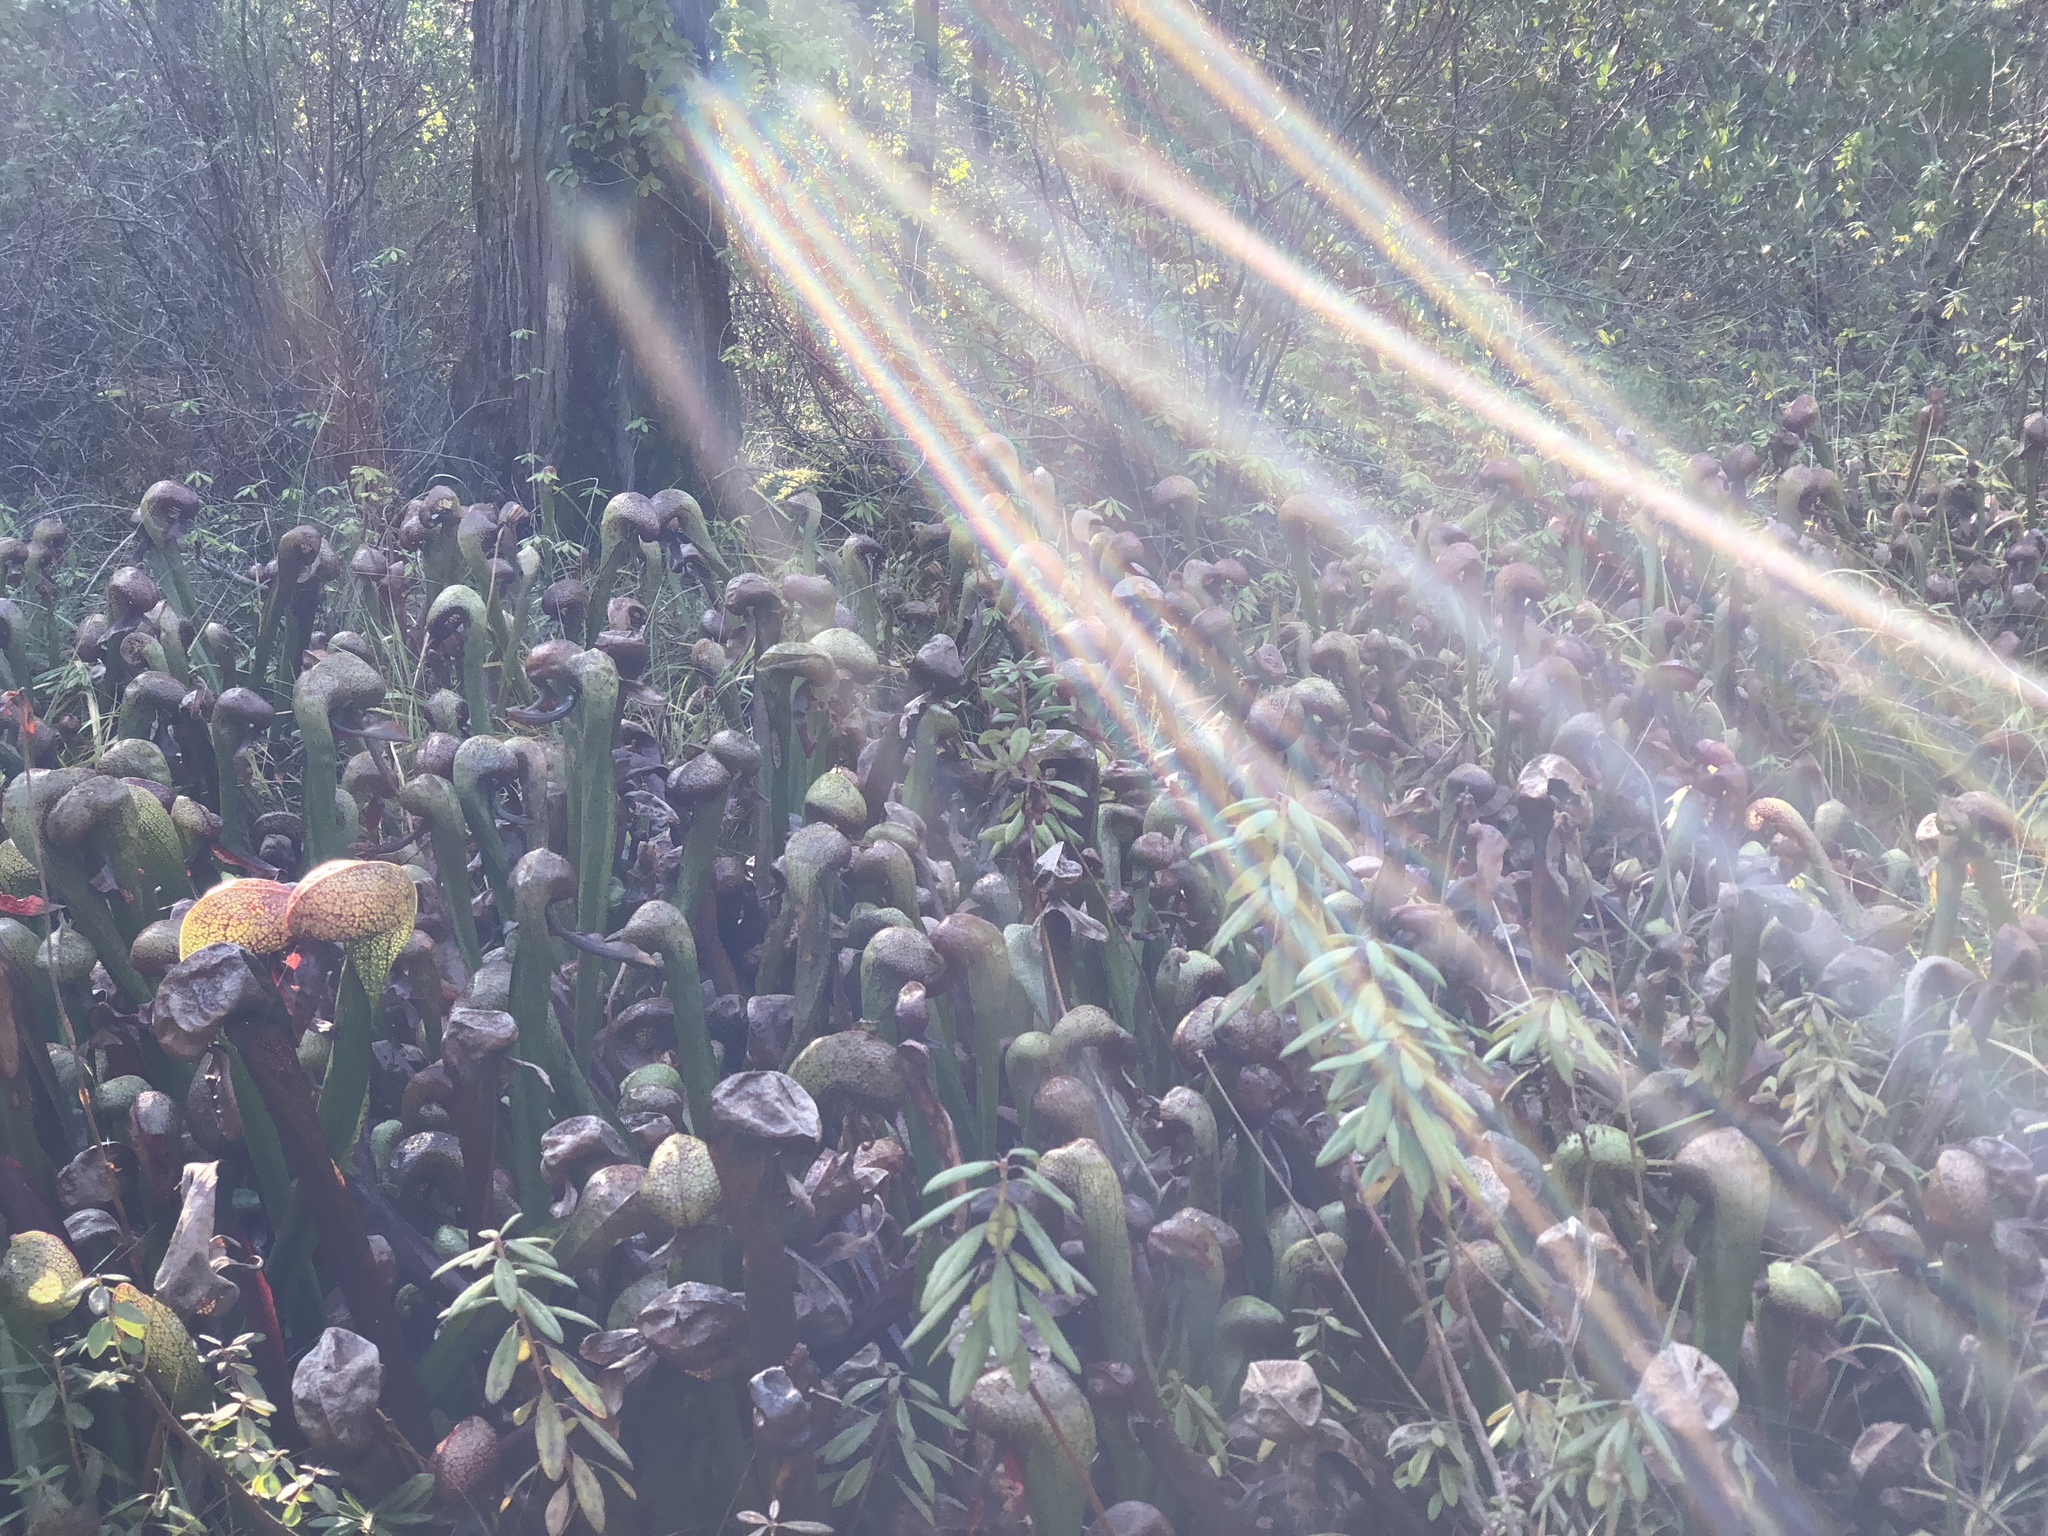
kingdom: Plantae
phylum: Tracheophyta
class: Magnoliopsida
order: Ericales
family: Sarraceniaceae
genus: Darlingtonia
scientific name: Darlingtonia californica
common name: California pitcher plant
